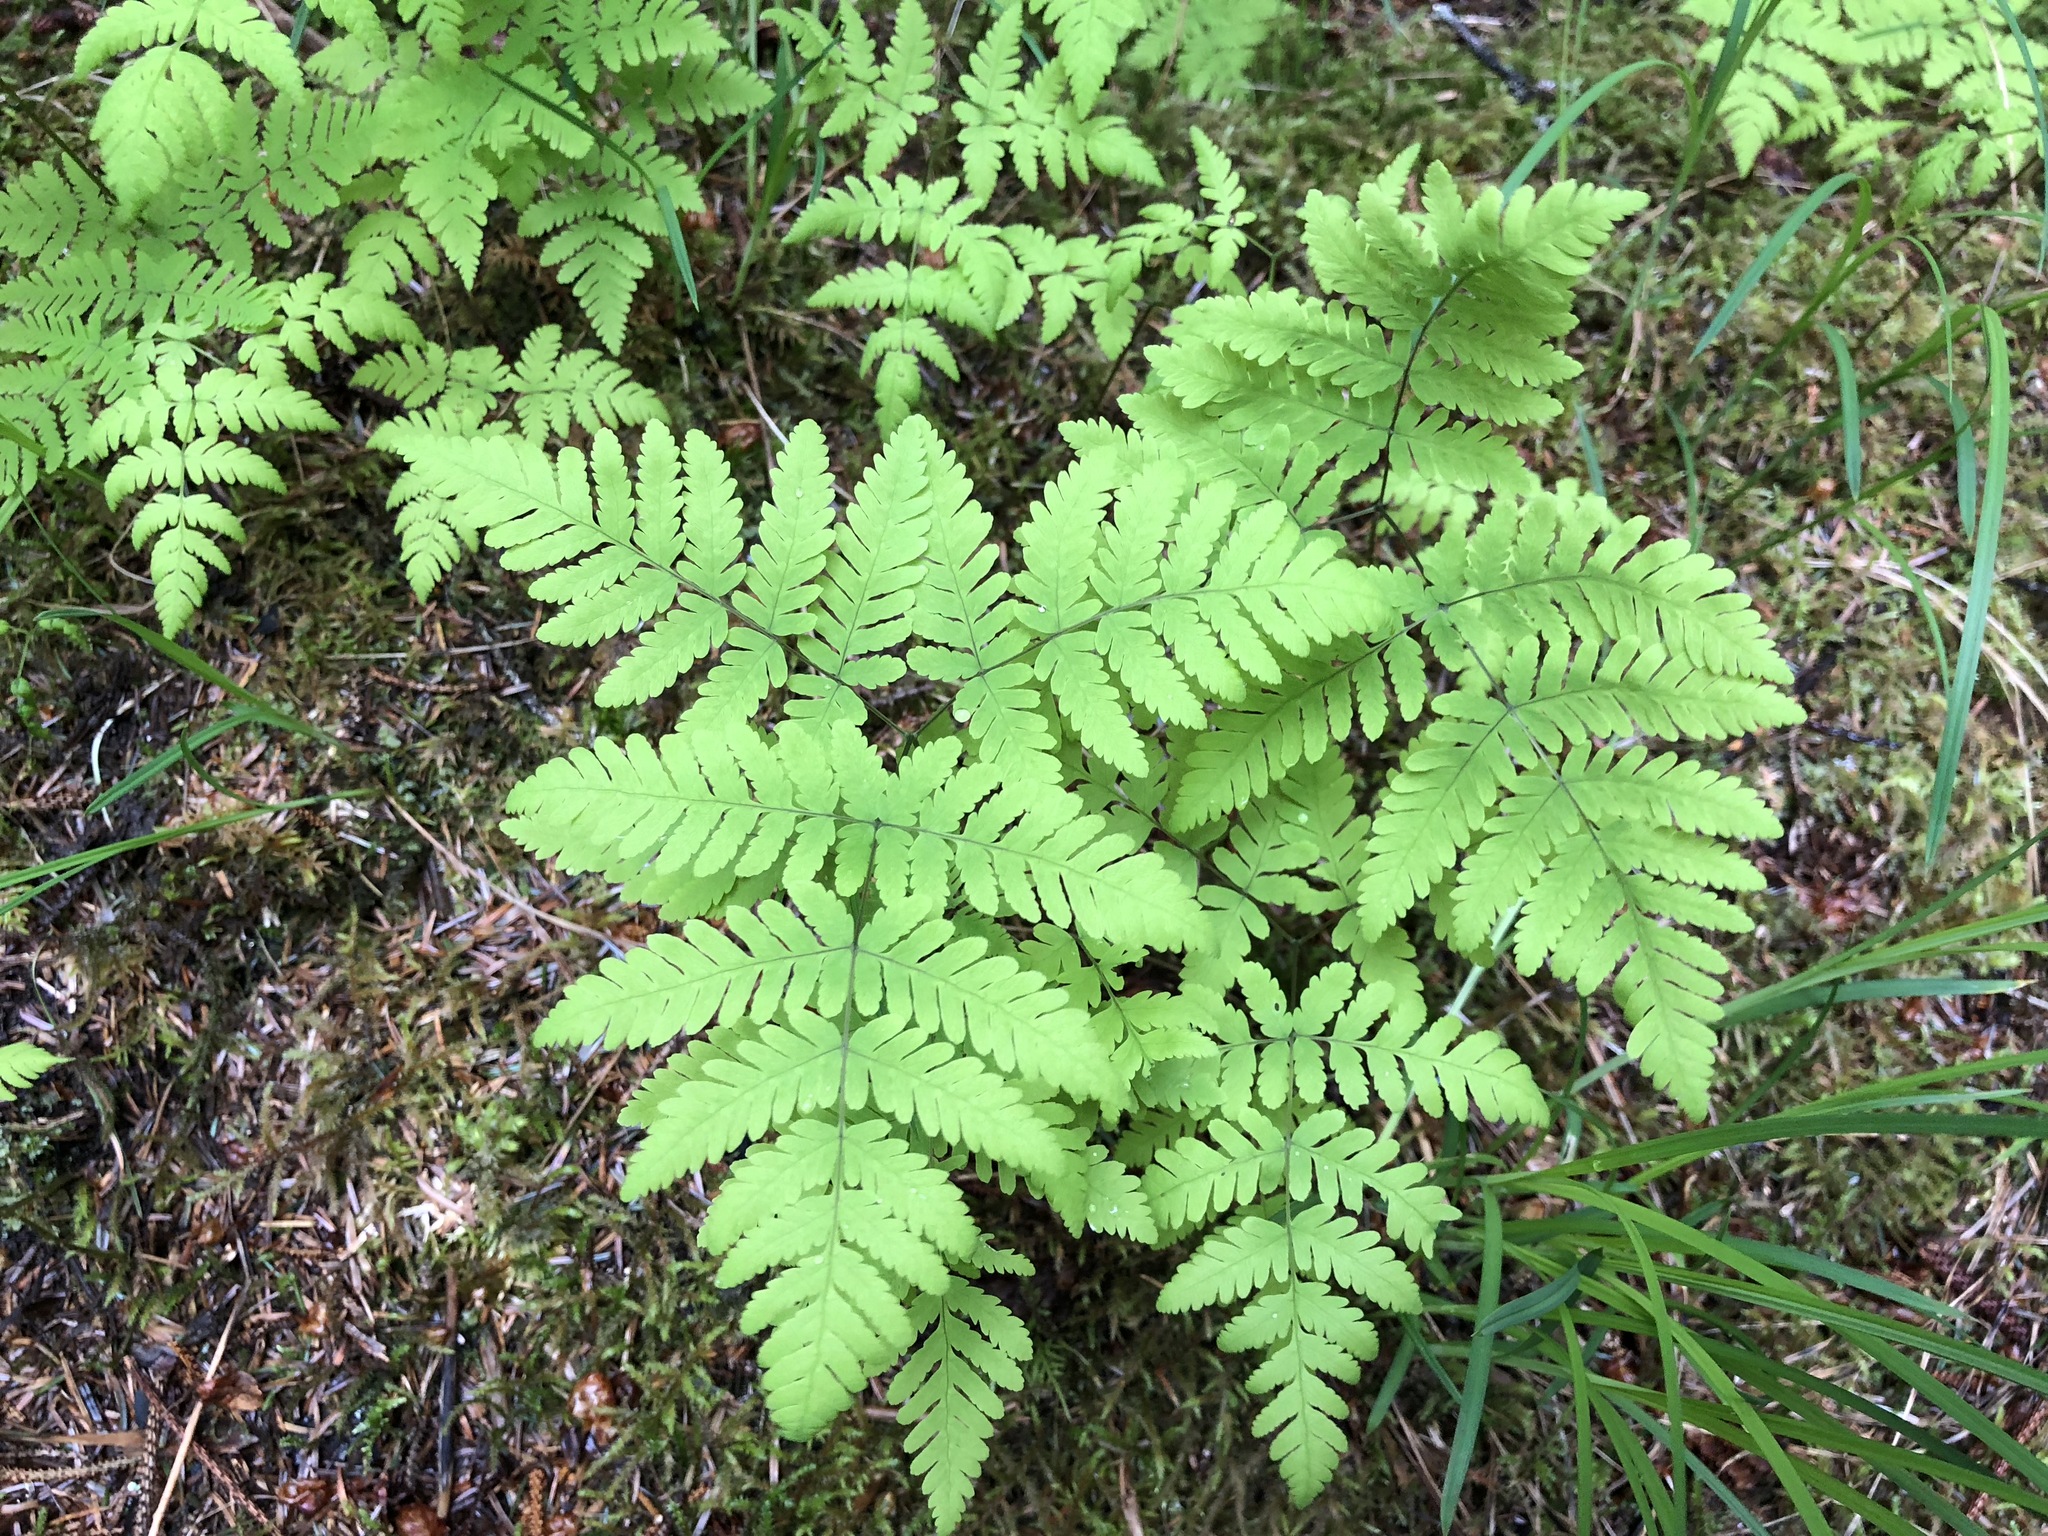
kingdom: Plantae
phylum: Tracheophyta
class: Polypodiopsida
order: Polypodiales
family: Cystopteridaceae
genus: Gymnocarpium
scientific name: Gymnocarpium dryopteris
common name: Oak fern
